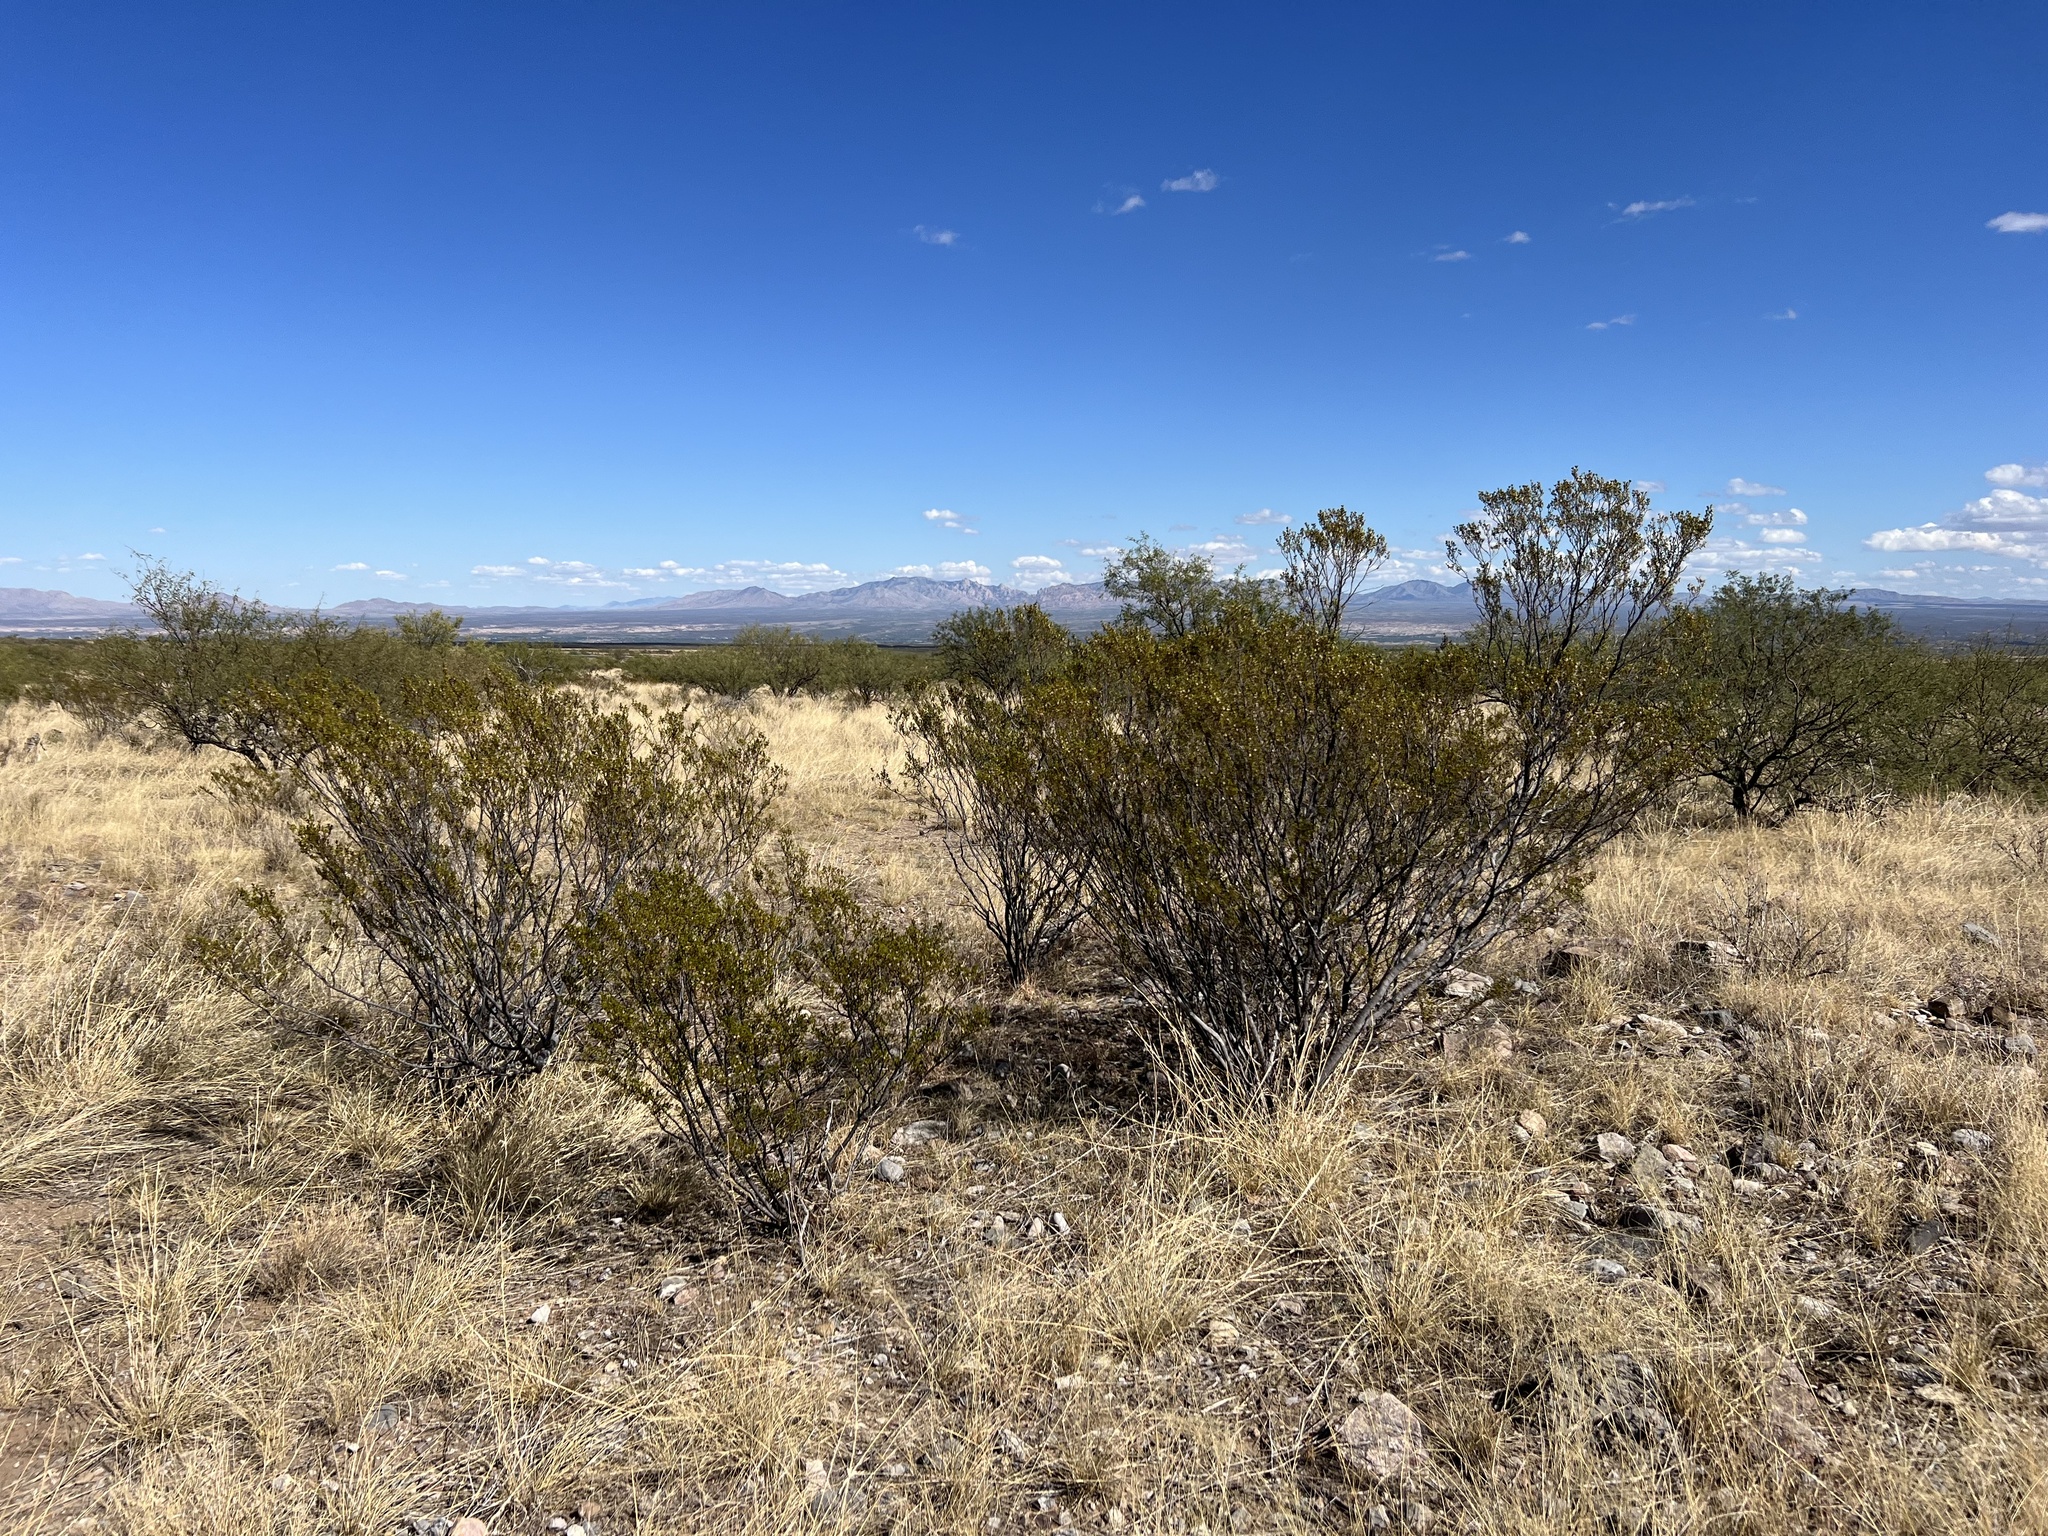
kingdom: Plantae
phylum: Tracheophyta
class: Magnoliopsida
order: Zygophyllales
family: Zygophyllaceae
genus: Larrea
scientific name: Larrea tridentata
